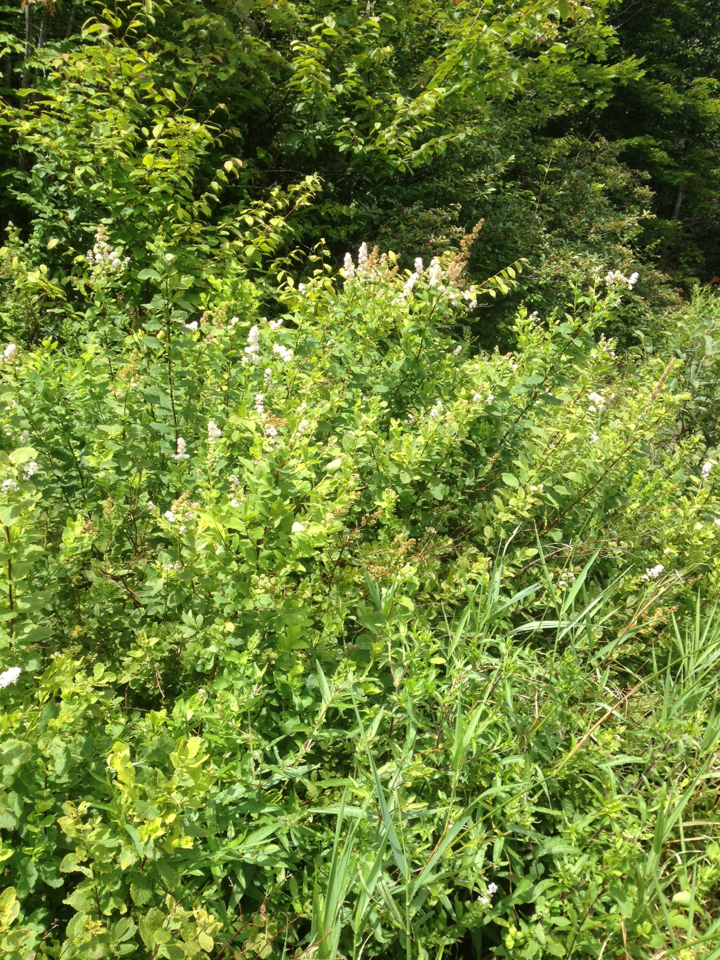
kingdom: Plantae
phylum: Tracheophyta
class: Magnoliopsida
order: Rosales
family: Rosaceae
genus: Spiraea
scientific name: Spiraea alba
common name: Pale bridewort
